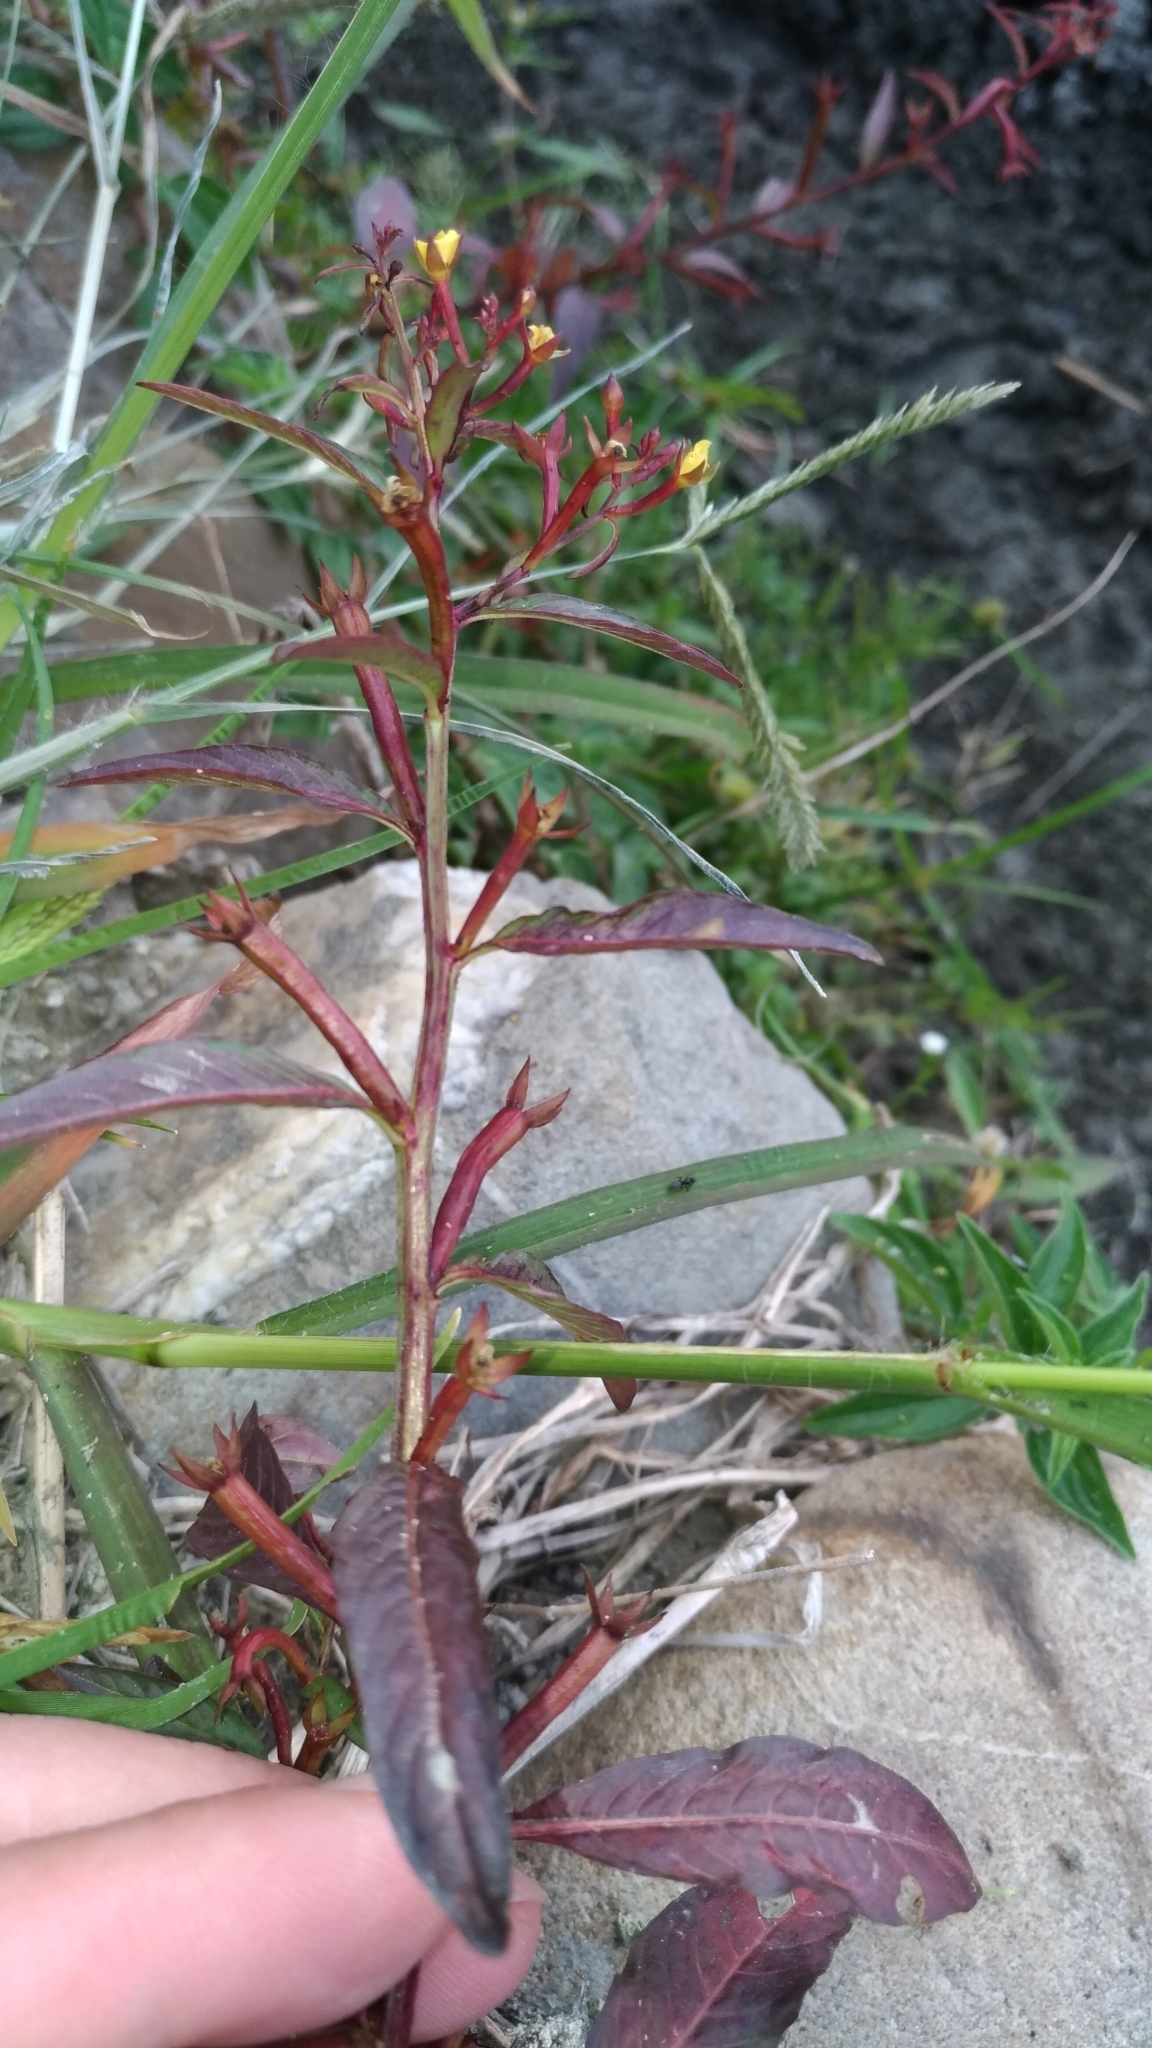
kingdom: Plantae
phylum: Tracheophyta
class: Magnoliopsida
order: Myrtales
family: Onagraceae
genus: Ludwigia
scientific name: Ludwigia erecta
